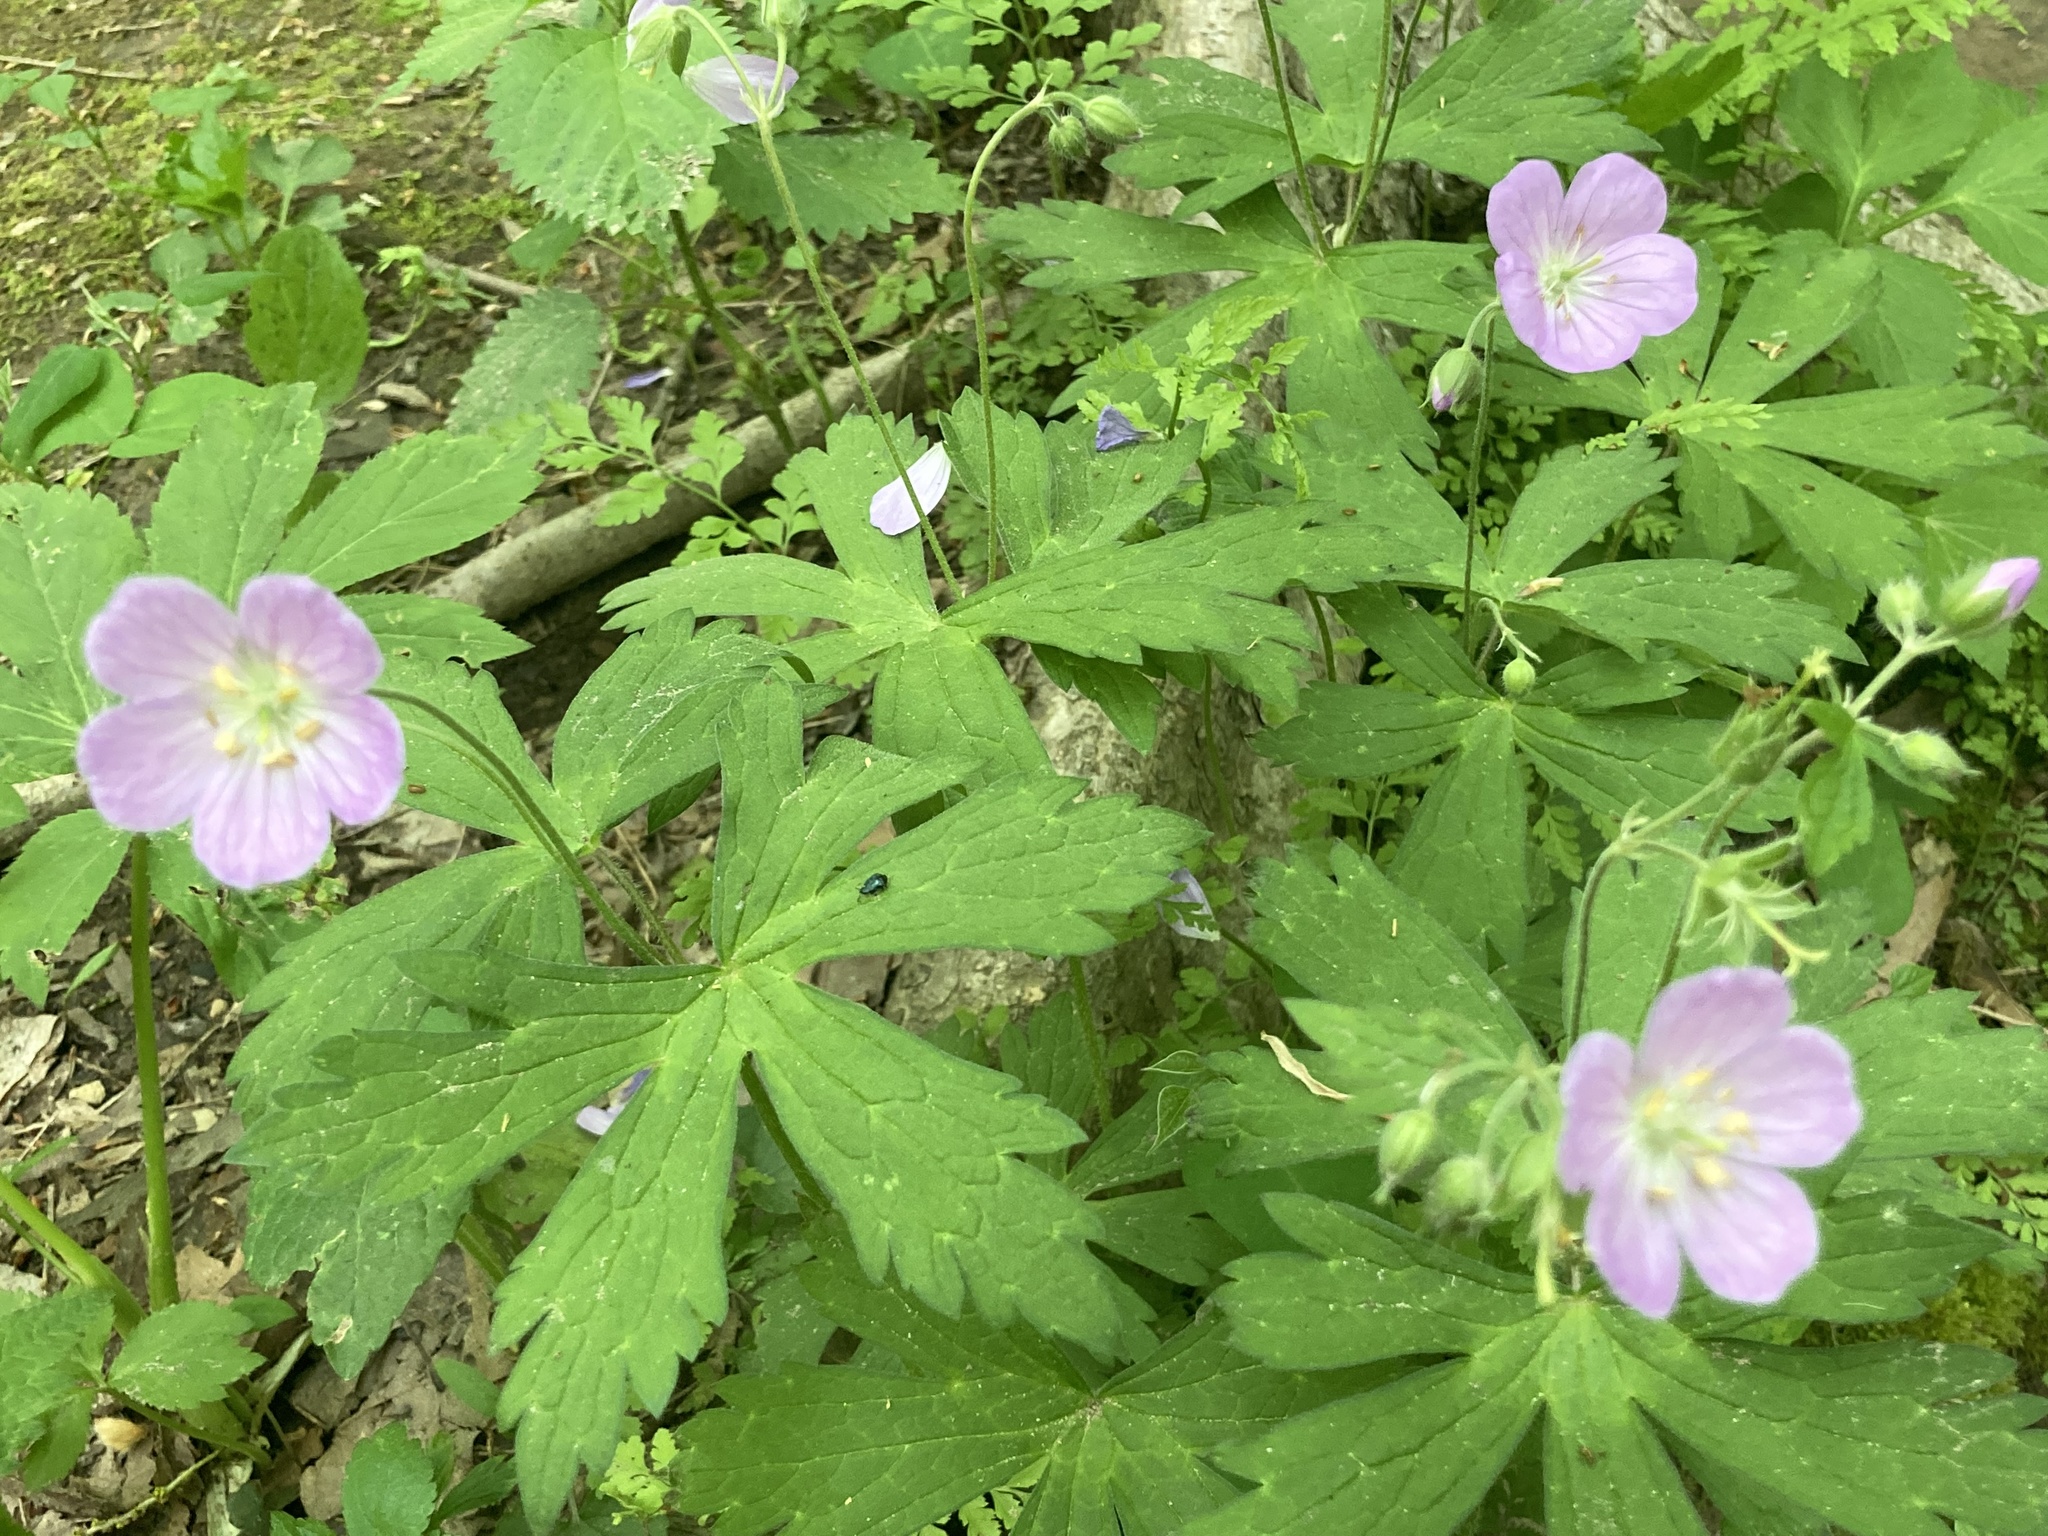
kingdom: Plantae
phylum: Tracheophyta
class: Magnoliopsida
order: Geraniales
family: Geraniaceae
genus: Geranium
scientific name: Geranium maculatum
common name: Spotted geranium
